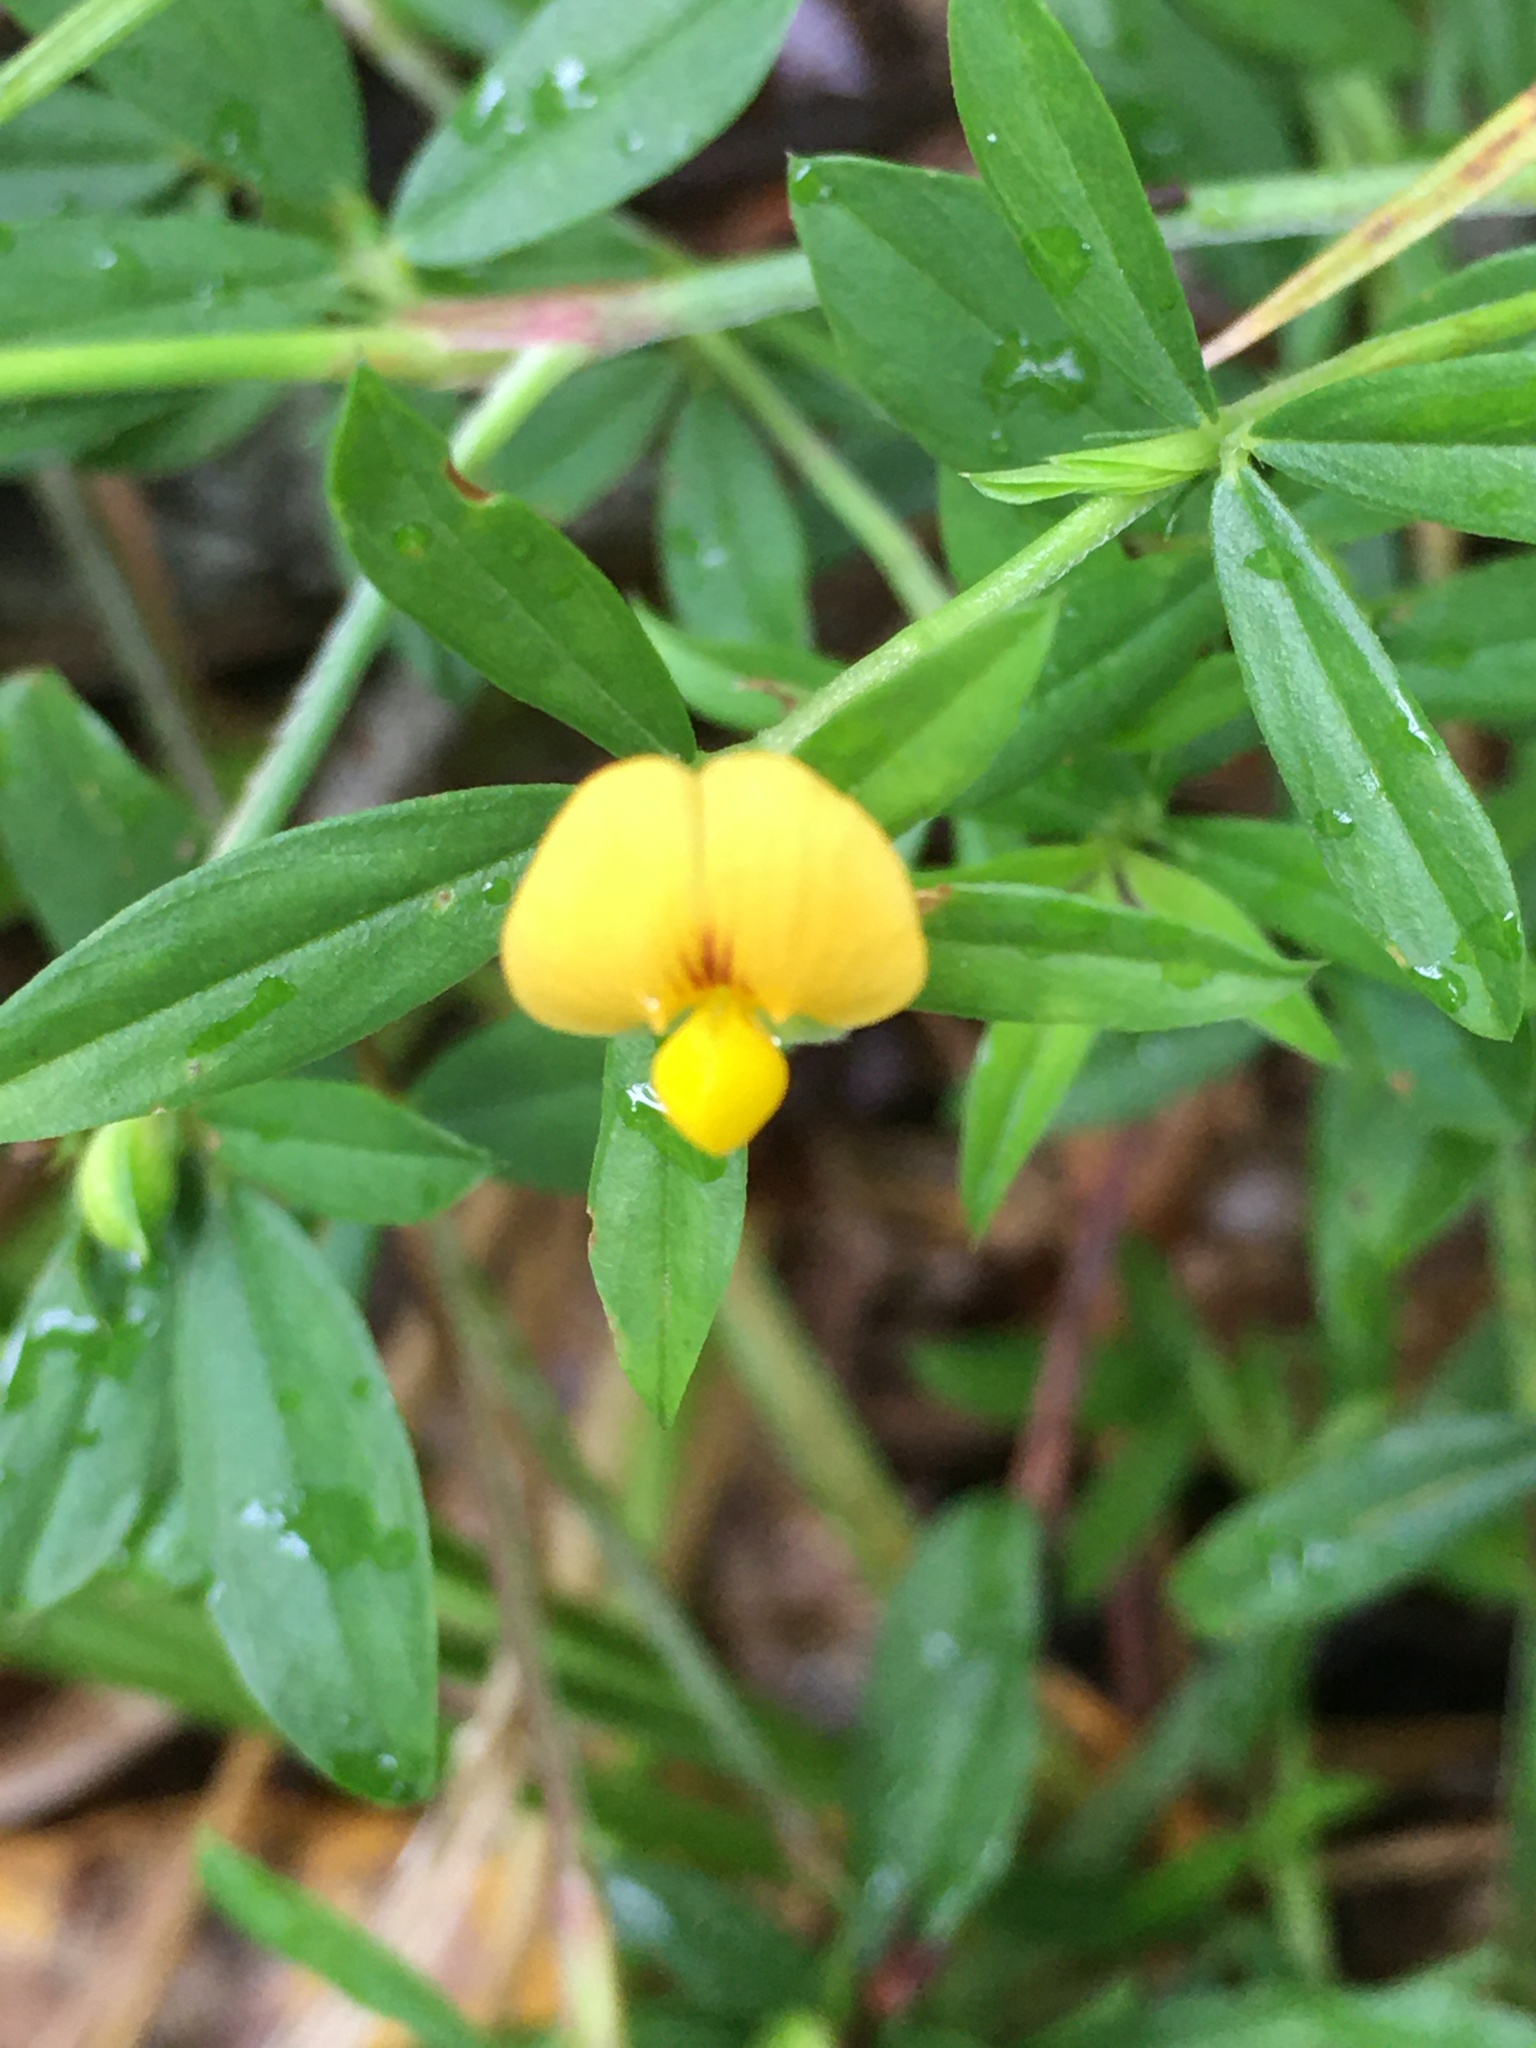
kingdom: Plantae
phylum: Tracheophyta
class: Magnoliopsida
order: Fabales
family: Fabaceae
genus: Stylosanthes
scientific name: Stylosanthes biflora
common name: Two-flower pencil-flower
